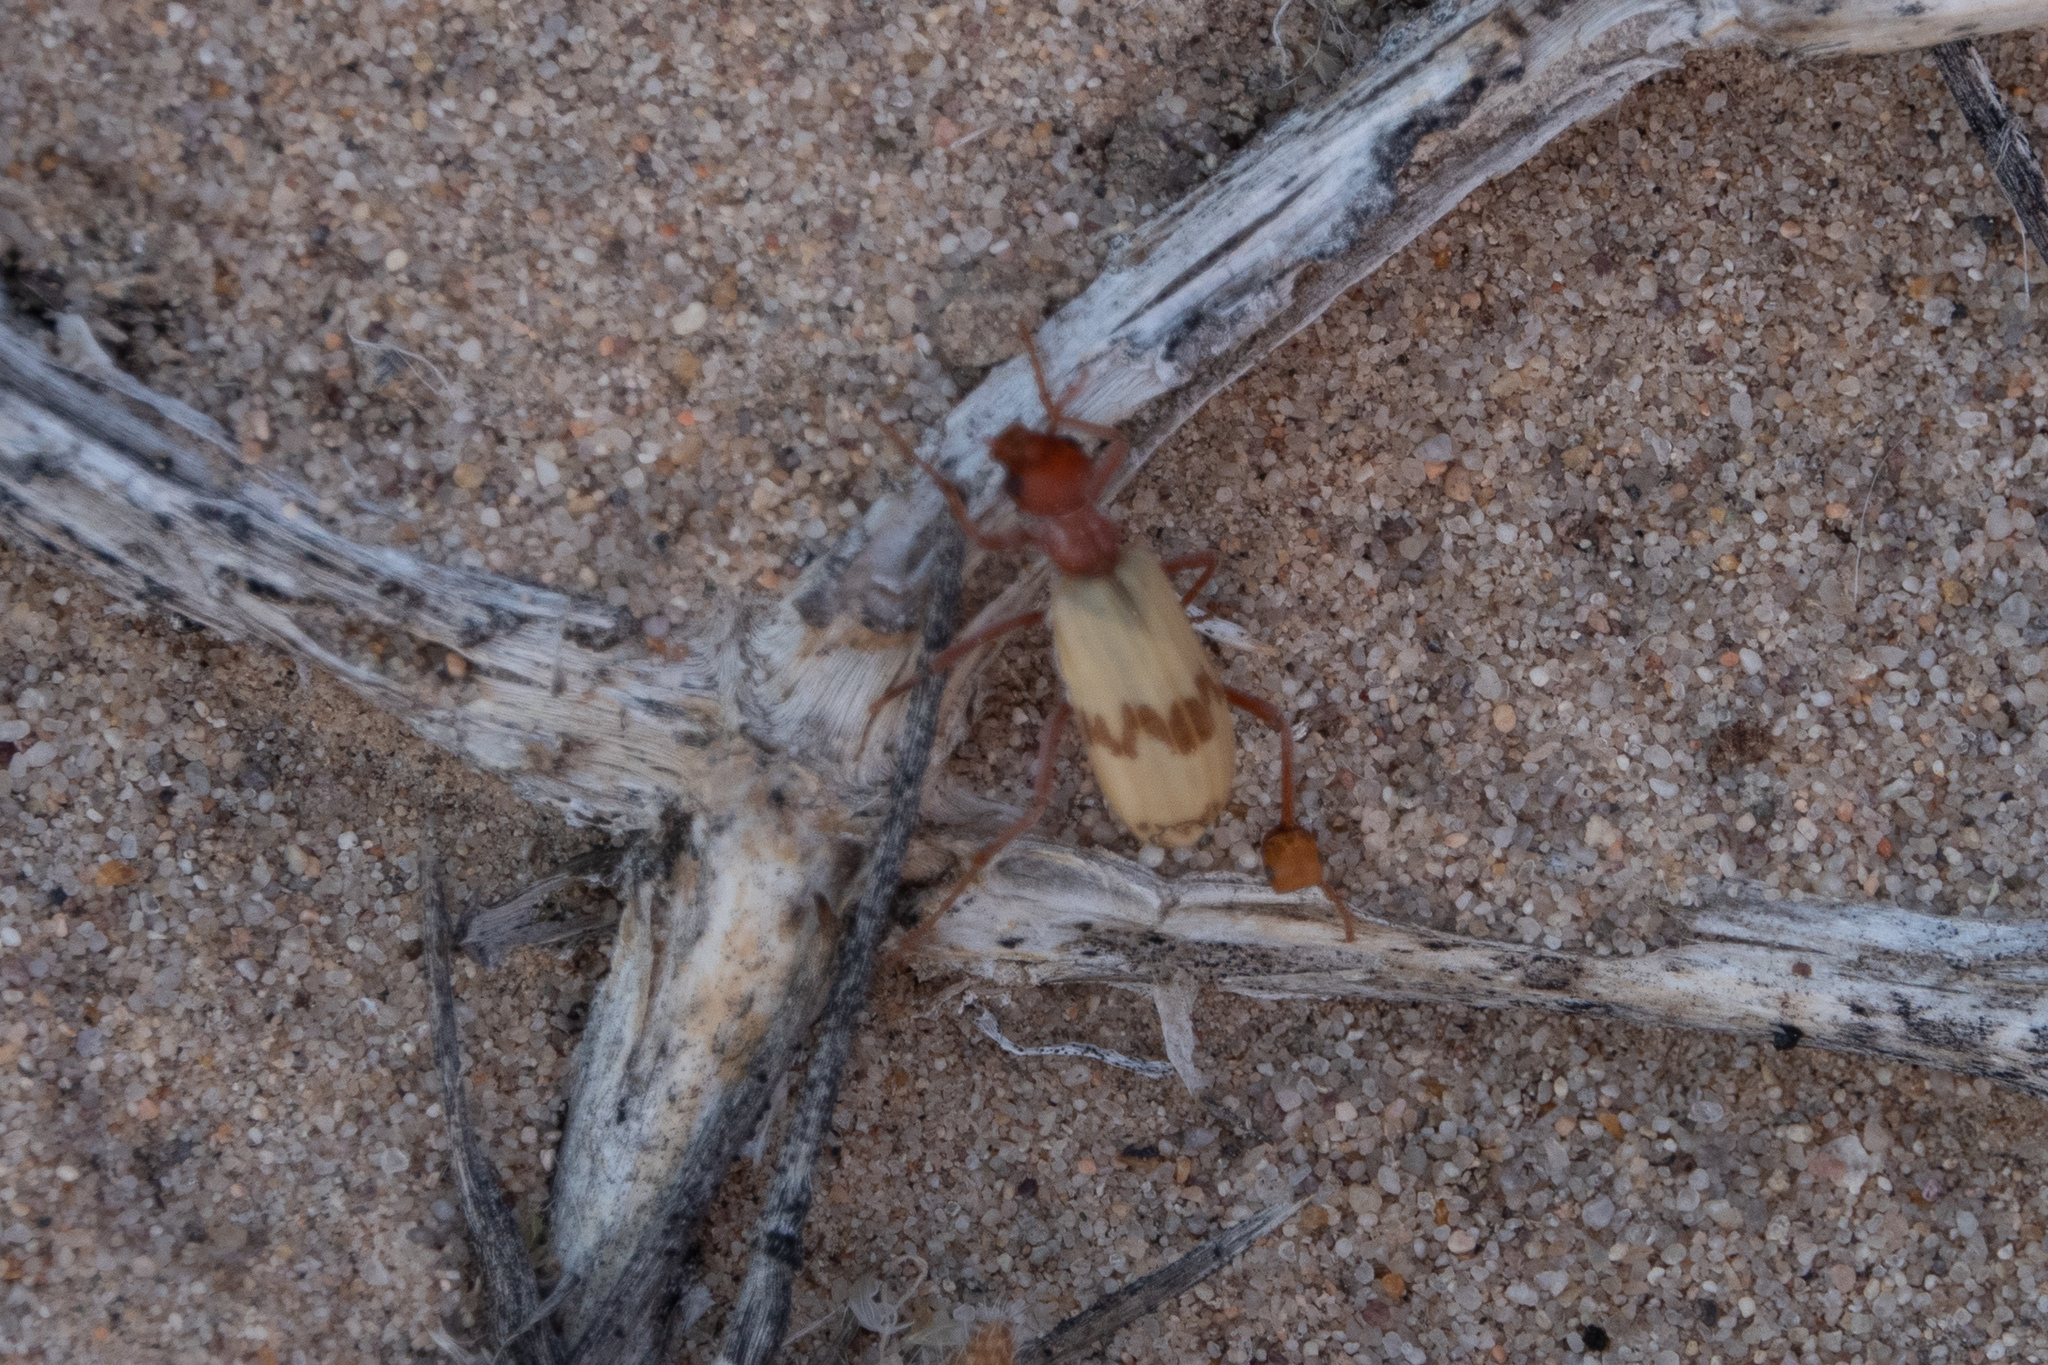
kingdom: Animalia
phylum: Arthropoda
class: Insecta
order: Coleoptera
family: Meloidae
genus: Pleuropasta
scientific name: Pleuropasta mirabilis
